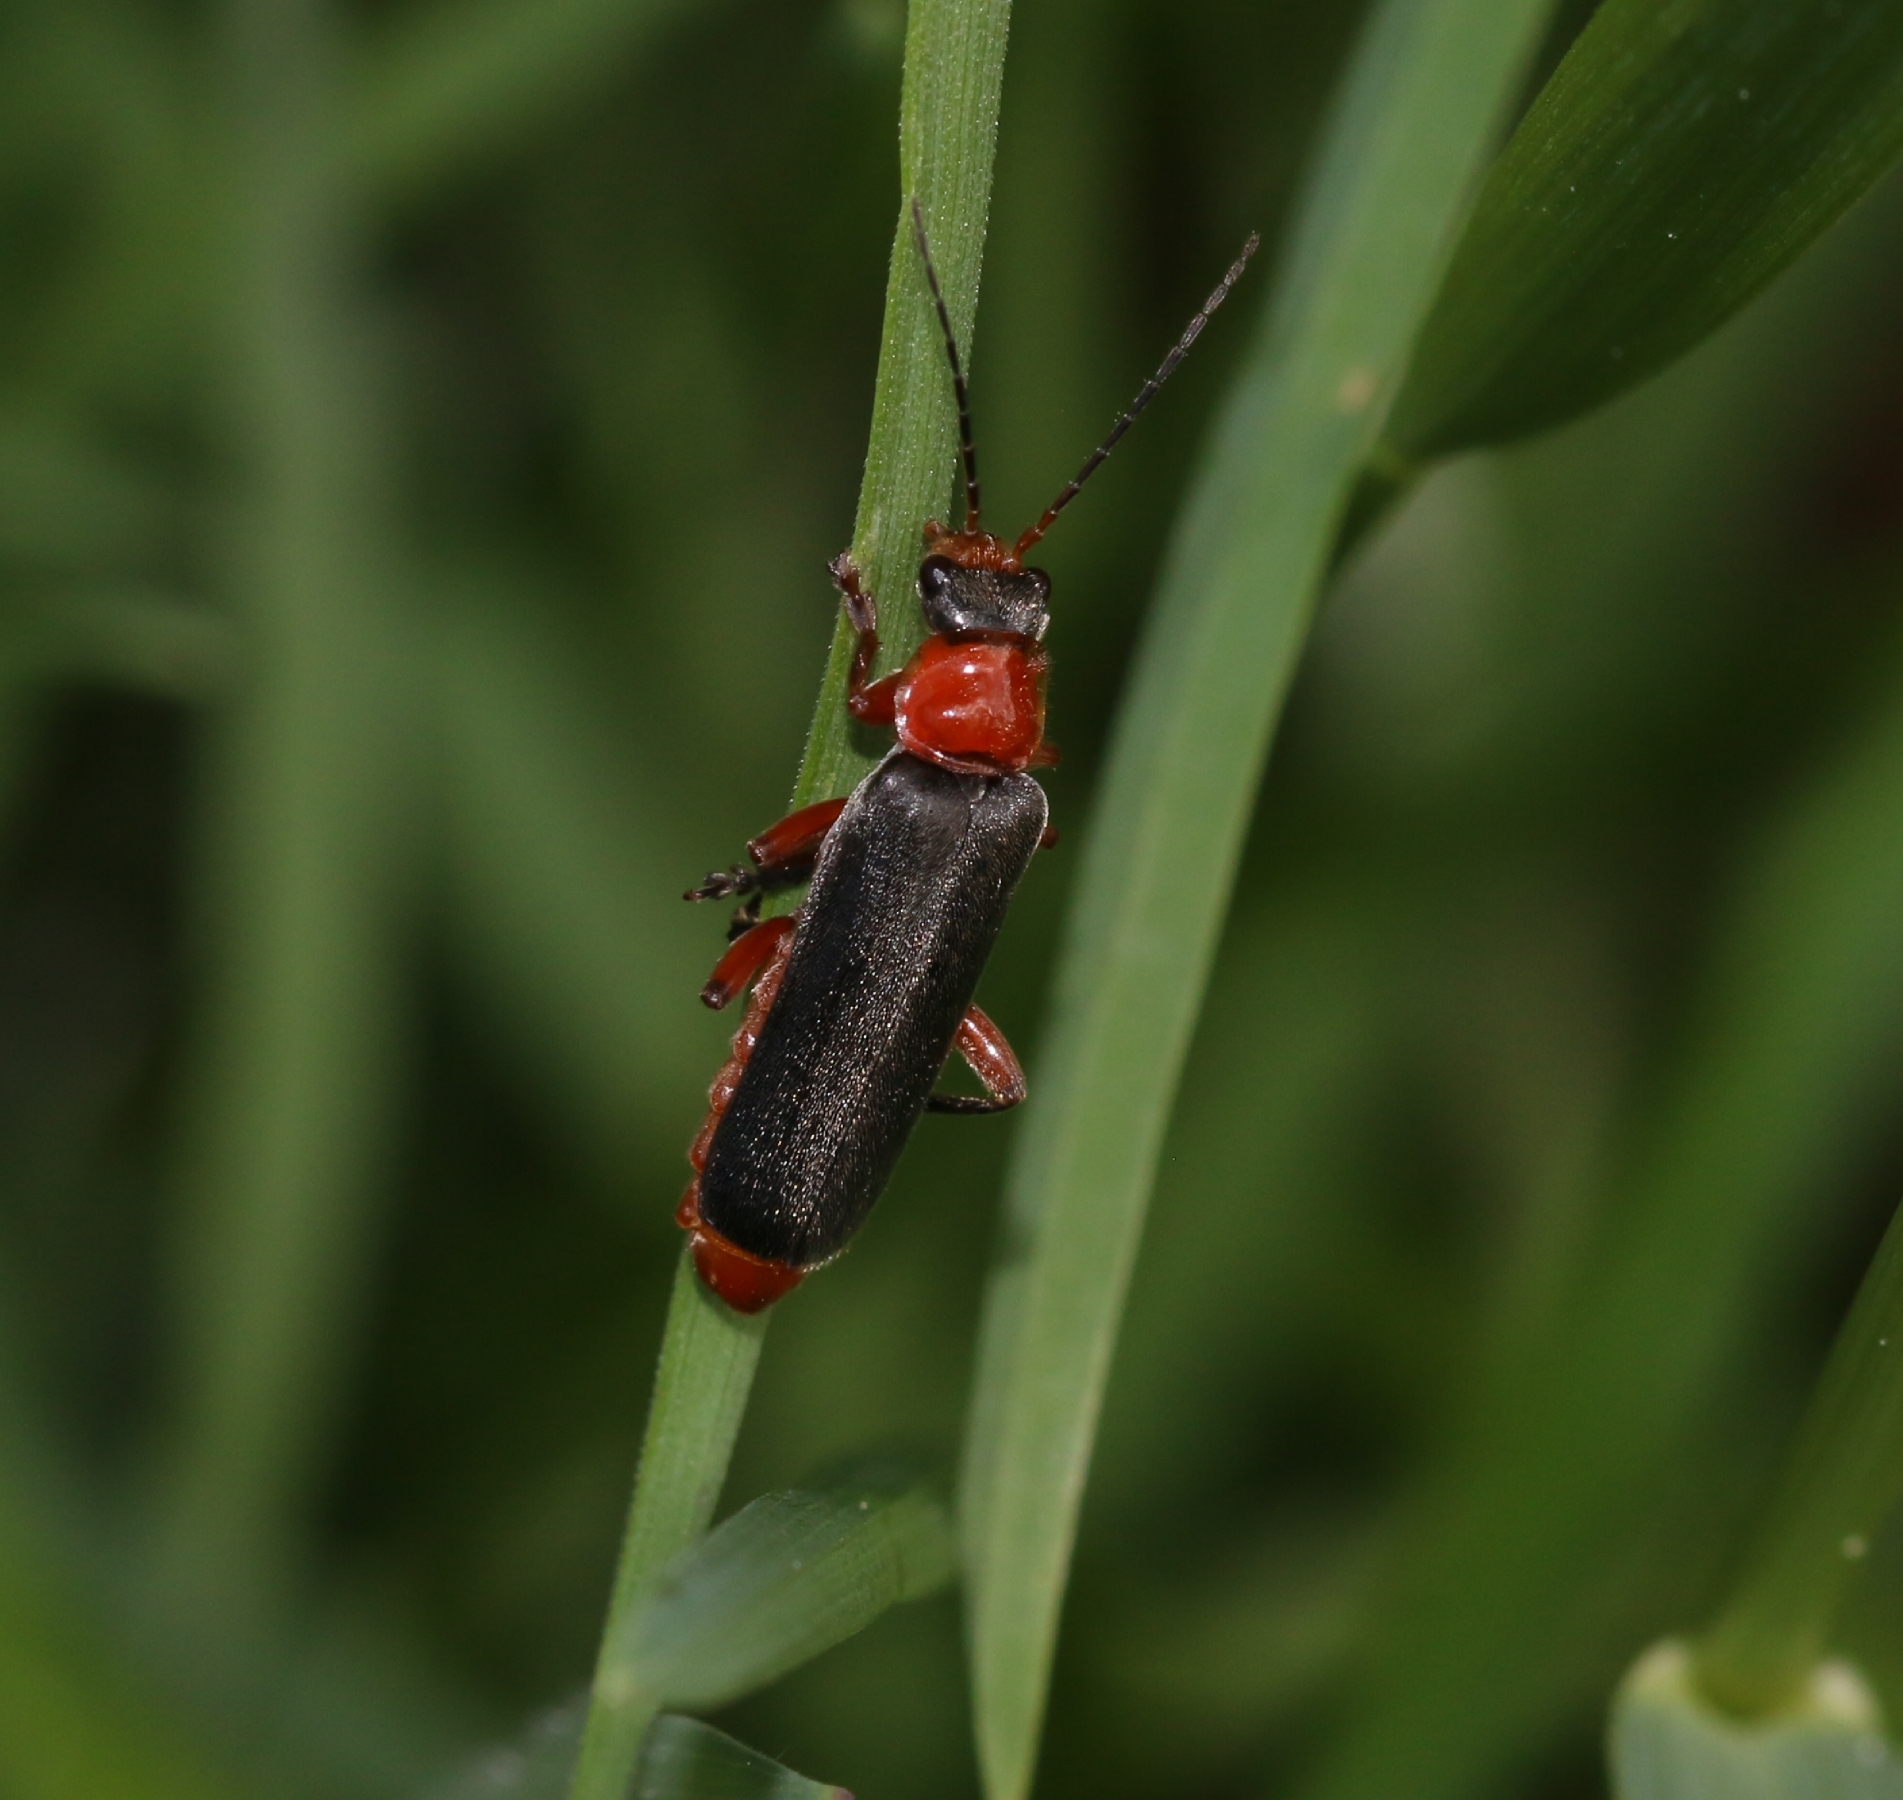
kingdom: Animalia
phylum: Arthropoda
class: Insecta
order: Coleoptera
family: Cantharidae
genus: Cantharis
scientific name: Cantharis pellucida
